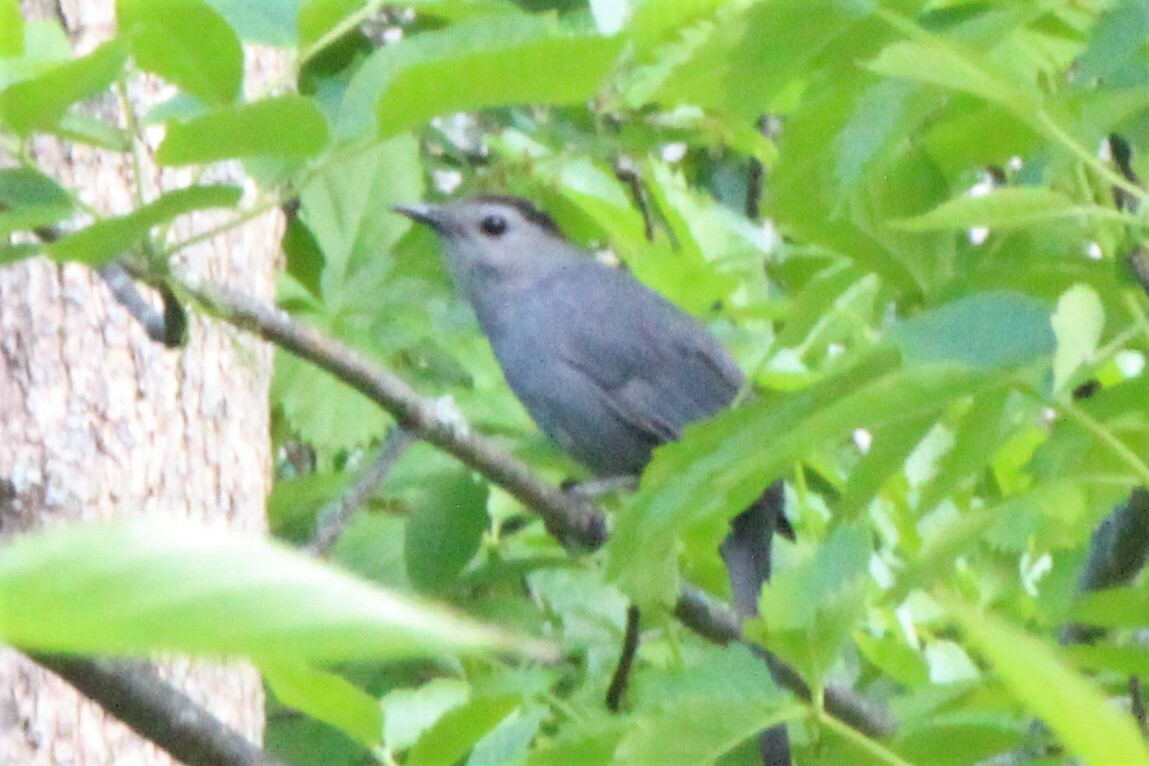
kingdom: Animalia
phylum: Chordata
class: Aves
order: Passeriformes
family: Mimidae
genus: Dumetella
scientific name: Dumetella carolinensis
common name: Gray catbird
